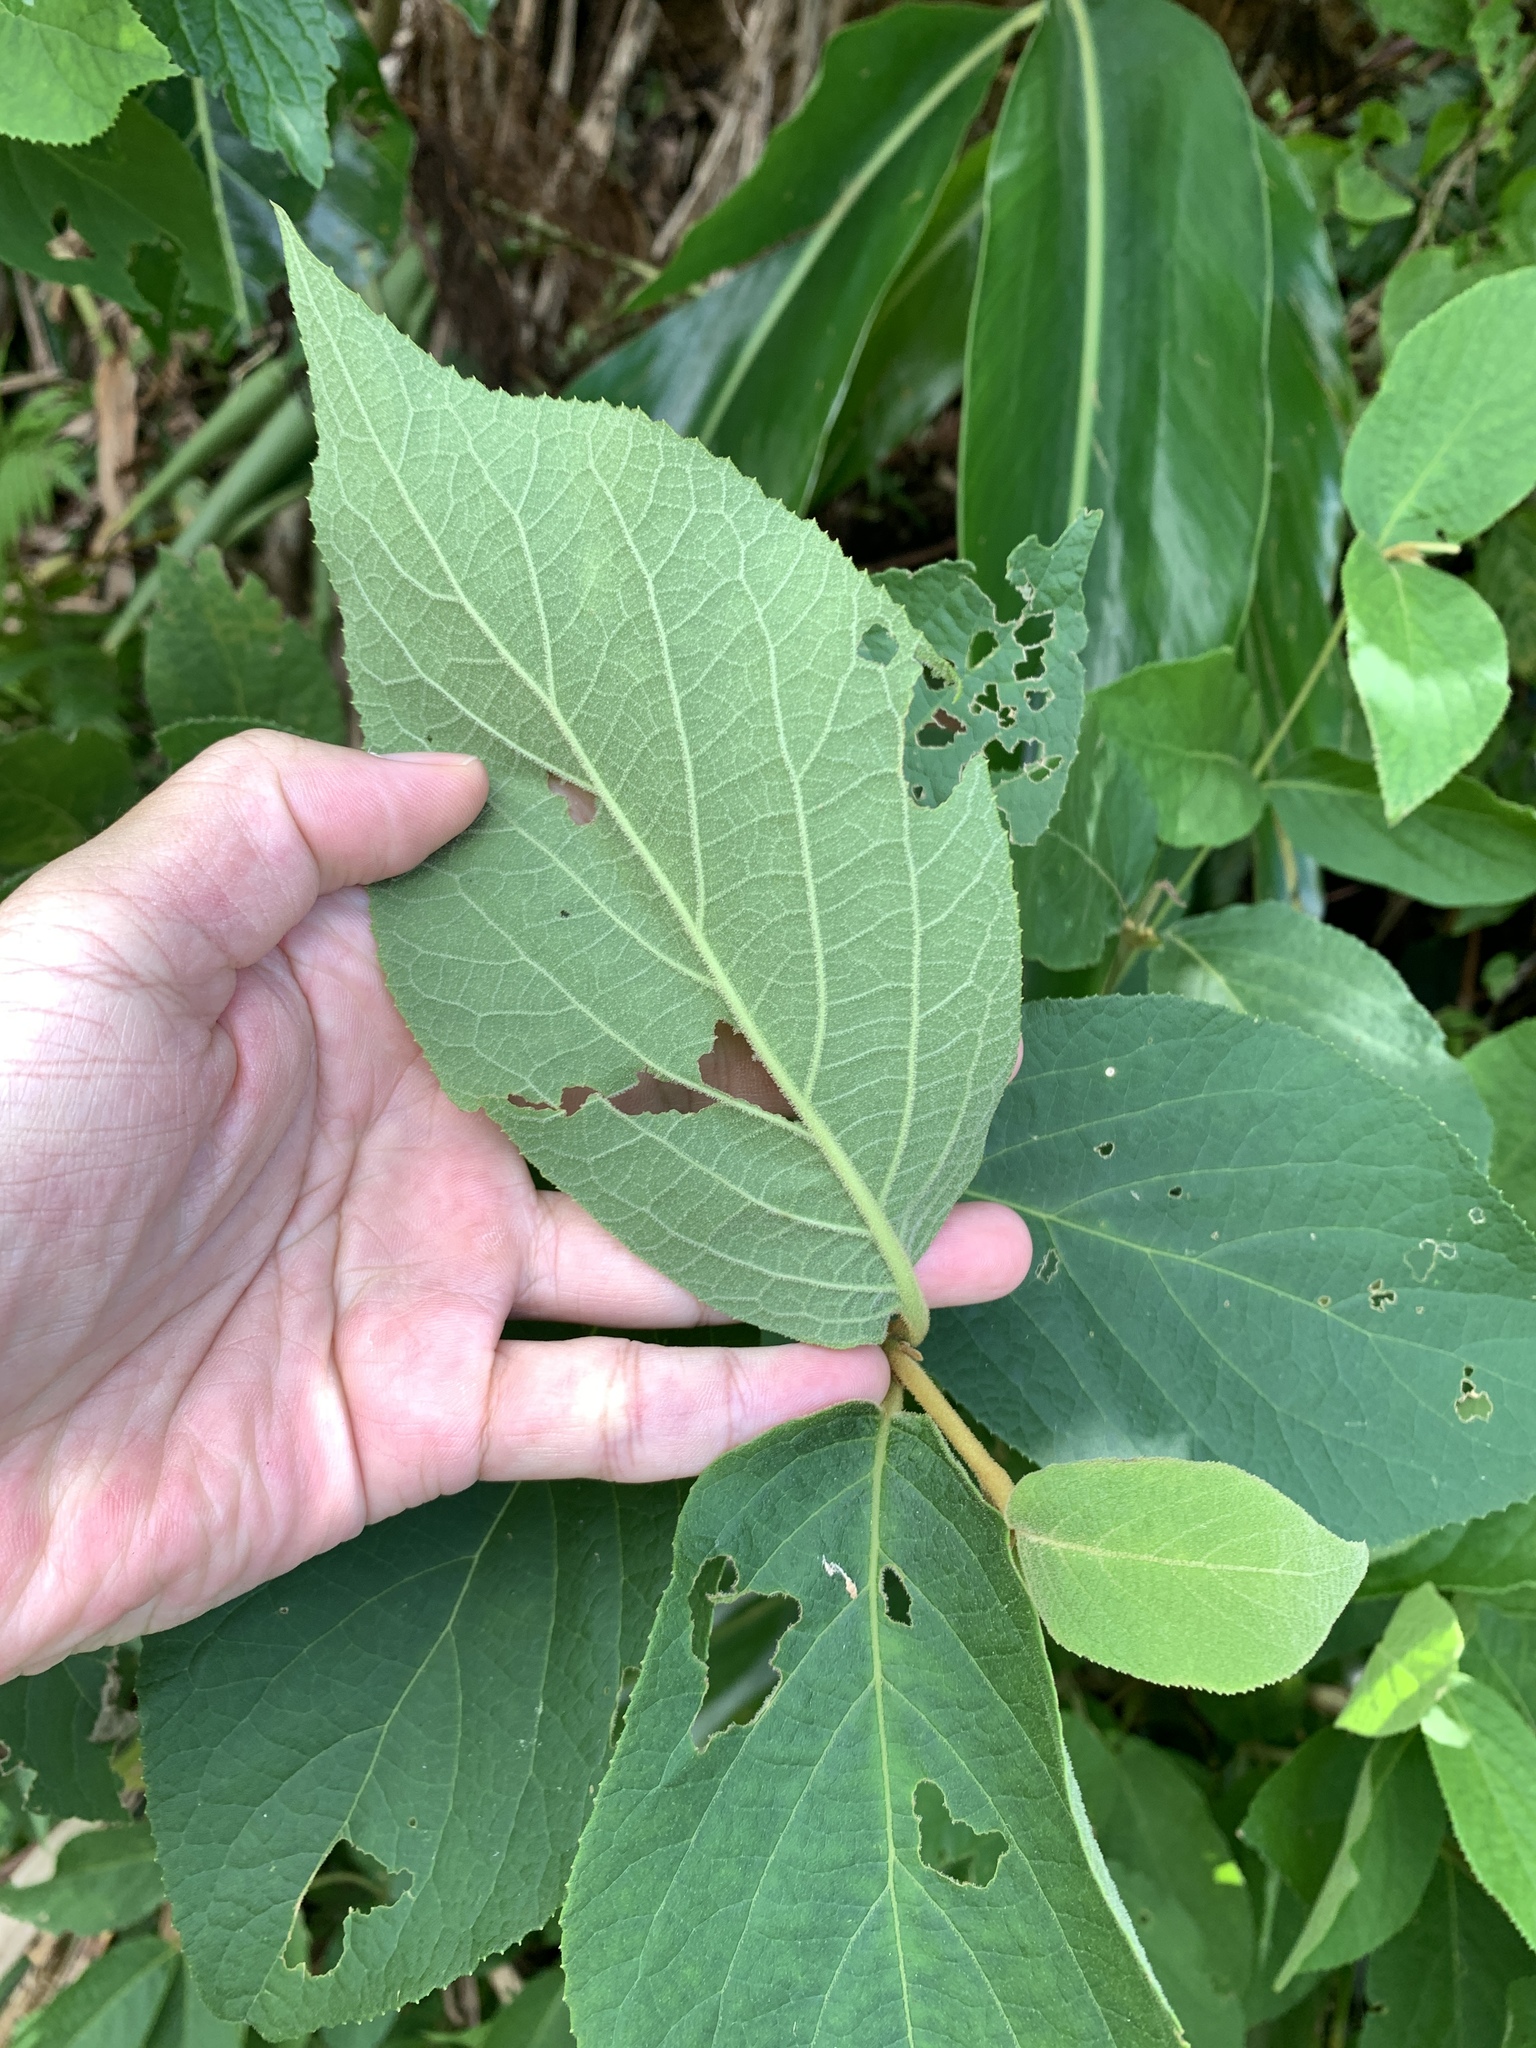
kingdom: Plantae
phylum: Tracheophyta
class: Magnoliopsida
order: Lamiales
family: Lamiaceae
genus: Callicarpa
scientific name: Callicarpa pedunculata
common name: Velvetleaf
